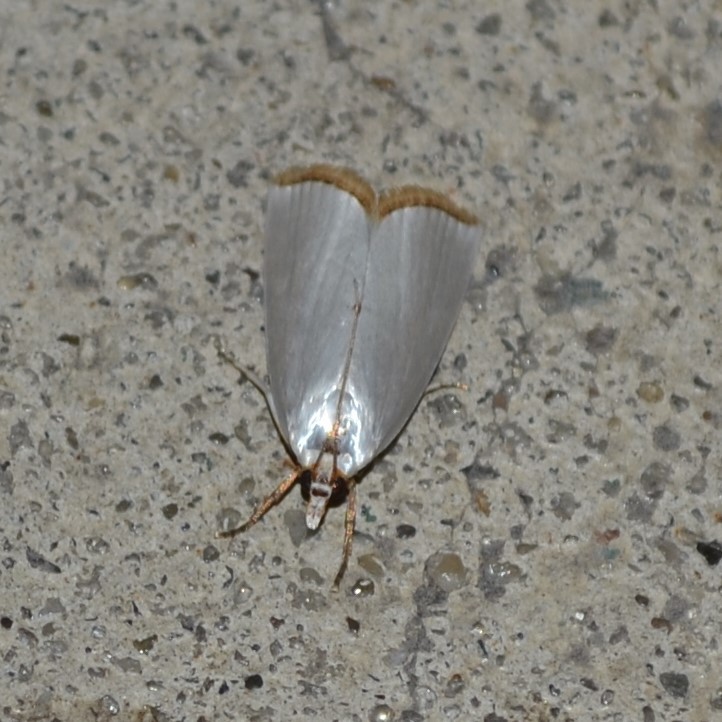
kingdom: Animalia
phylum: Arthropoda
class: Insecta
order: Lepidoptera
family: Crambidae
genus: Argyria
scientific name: Argyria nivalis
